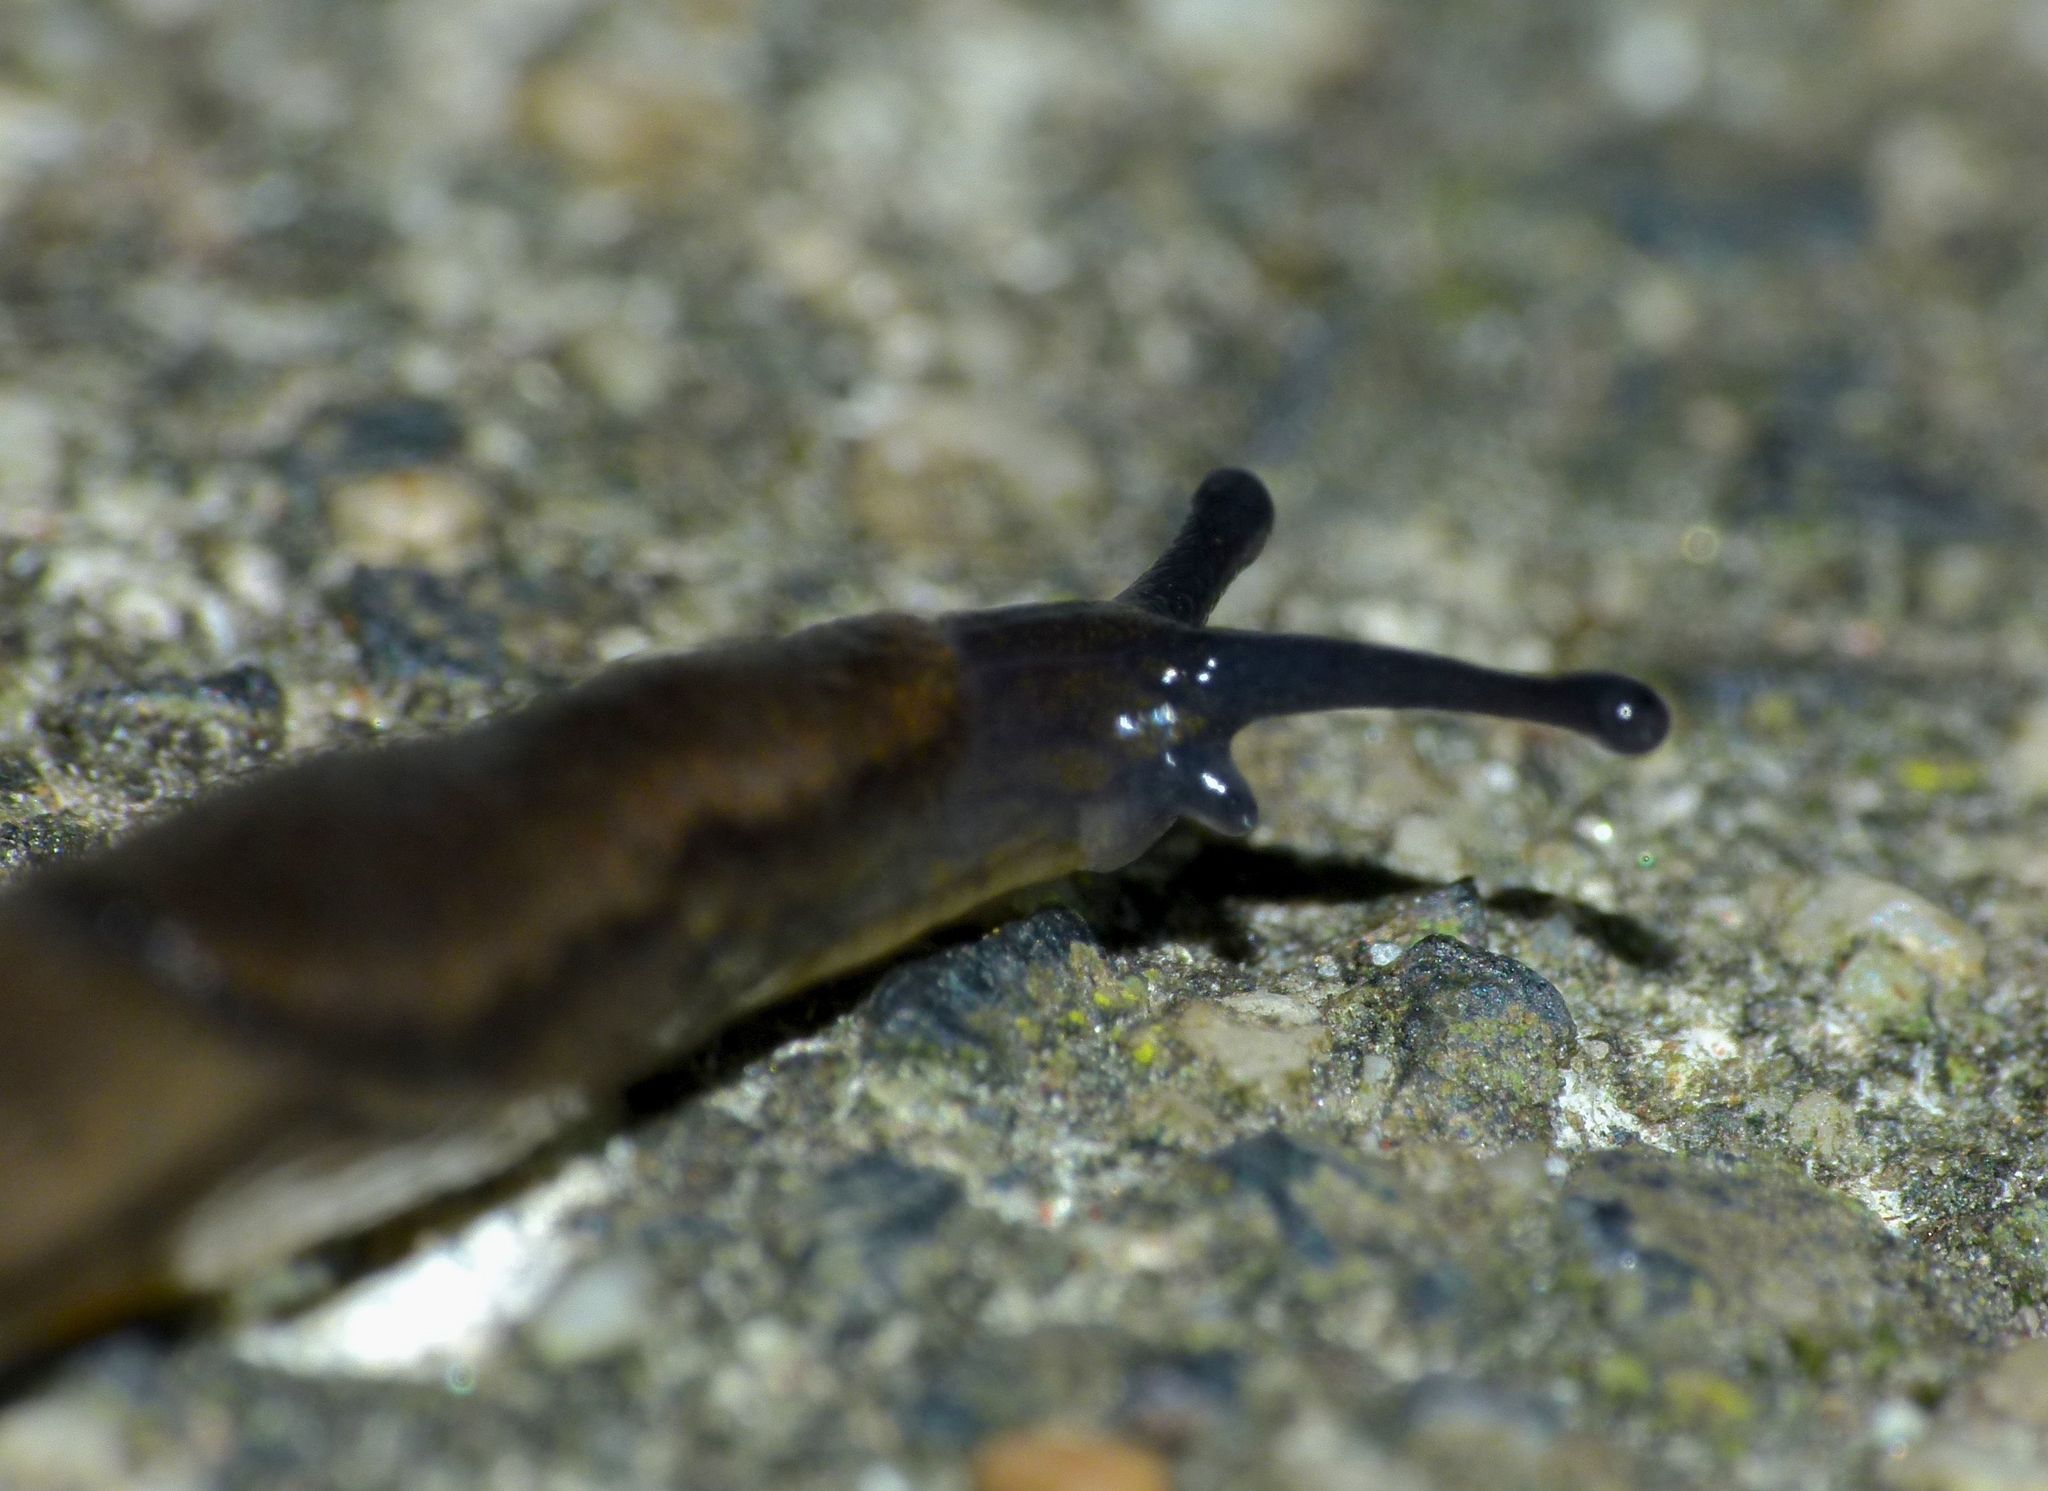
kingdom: Animalia
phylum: Mollusca
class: Gastropoda
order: Stylommatophora
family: Arionidae
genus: Arion
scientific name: Arion distinctus
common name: Darkface arion
